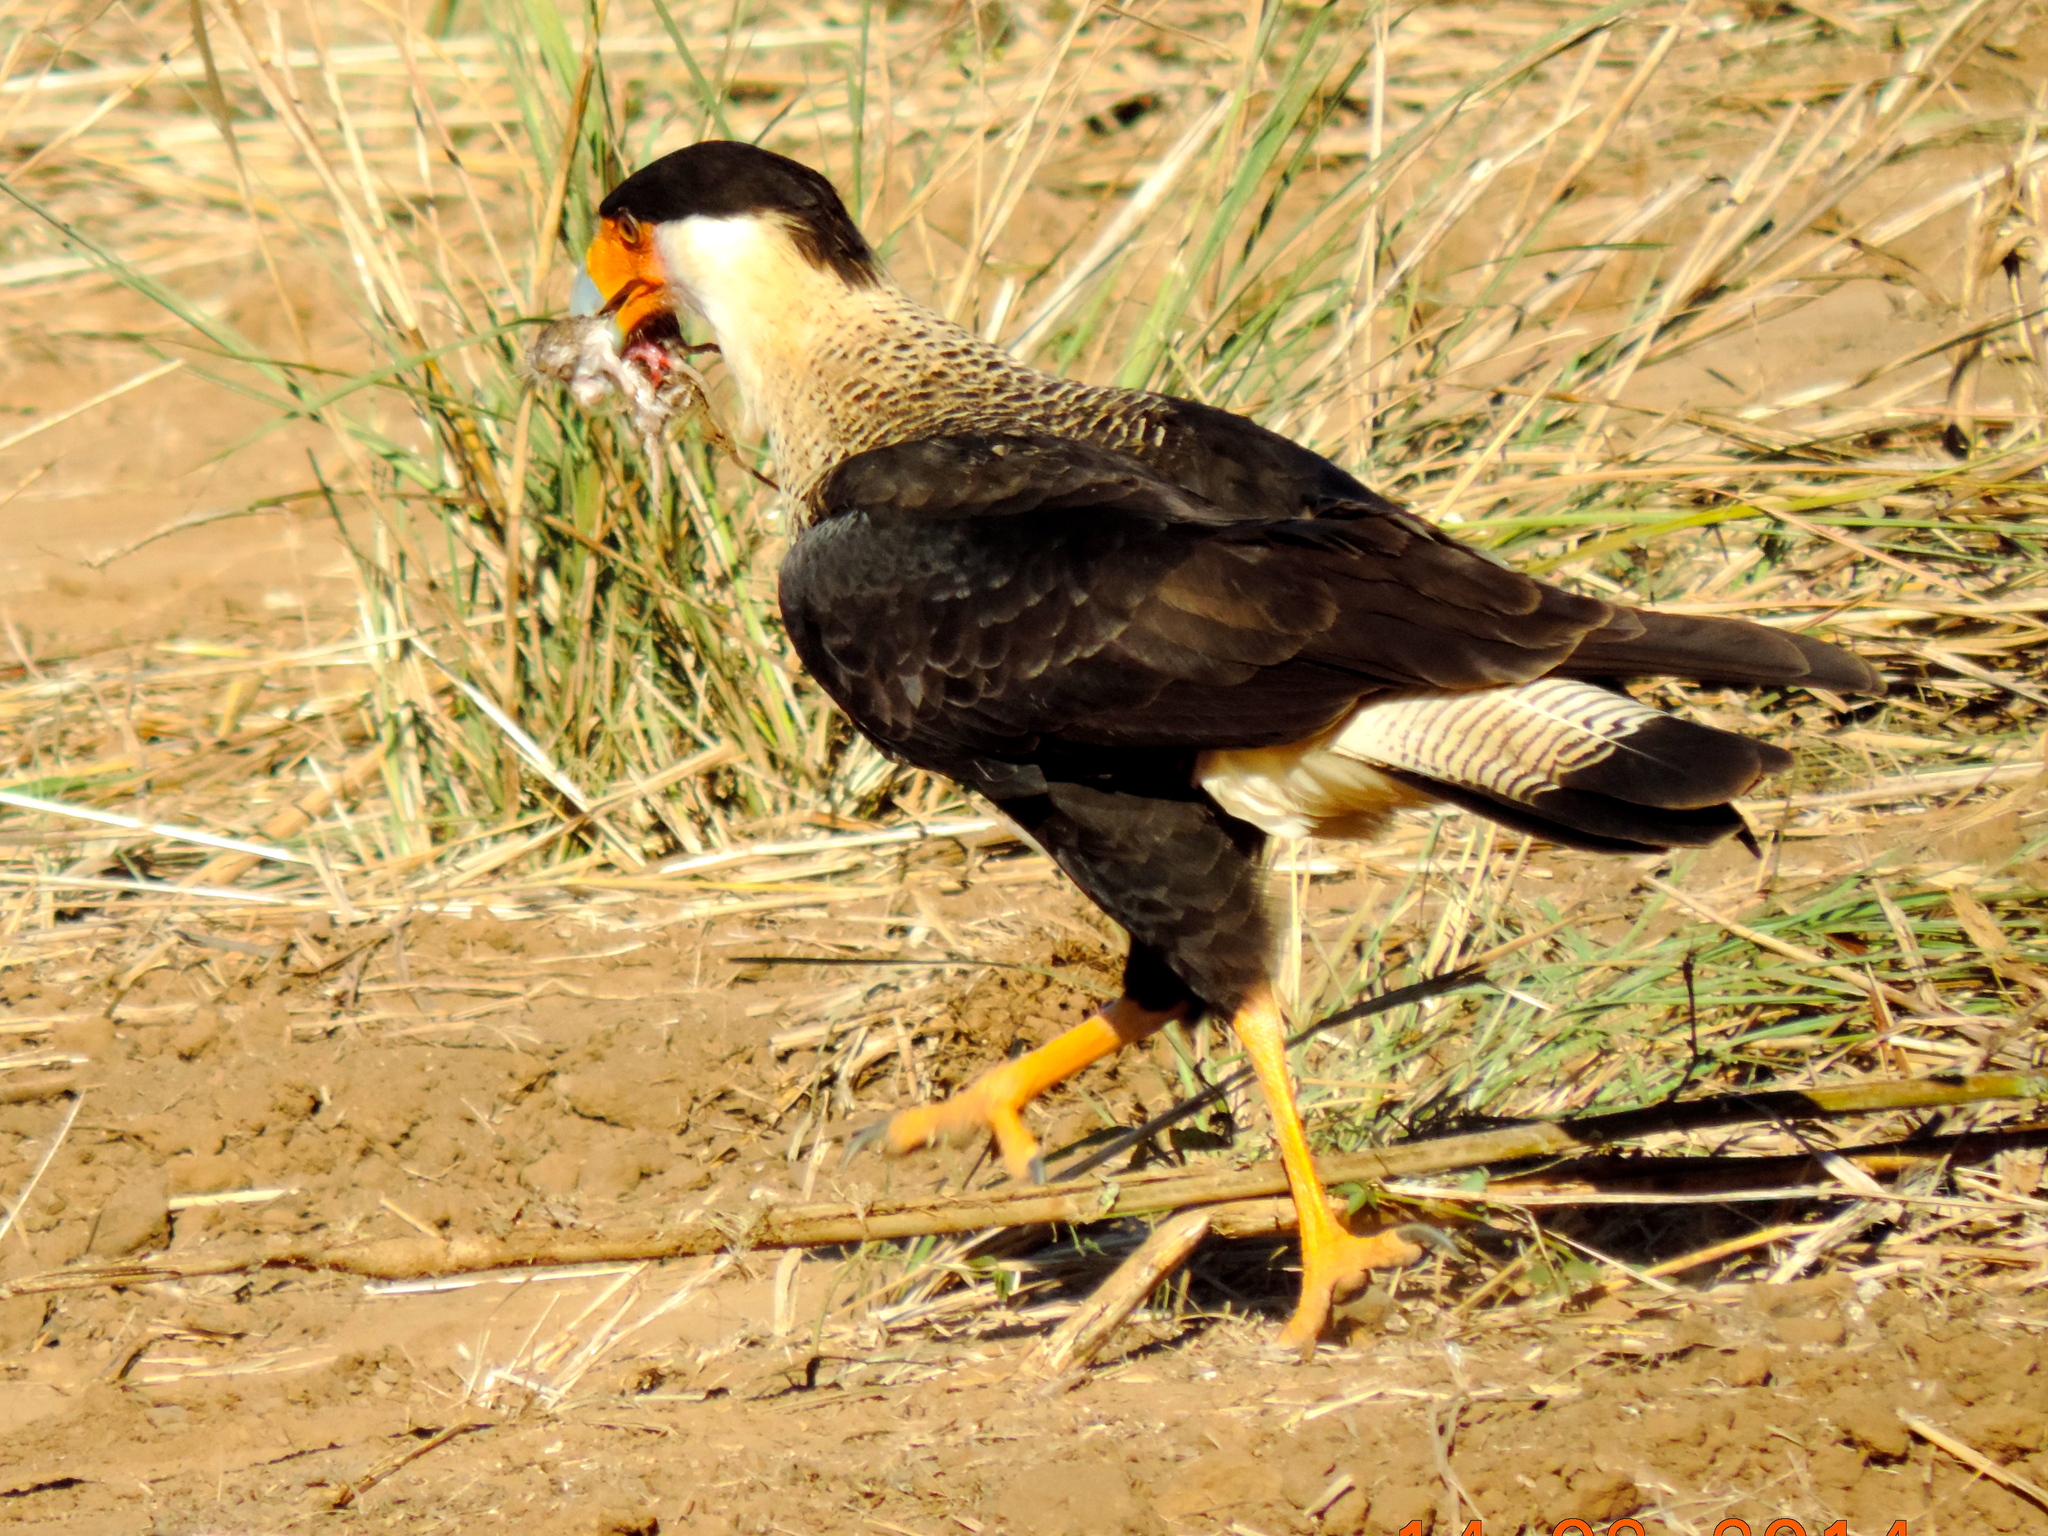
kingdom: Animalia
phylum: Chordata
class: Aves
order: Falconiformes
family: Falconidae
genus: Caracara
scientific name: Caracara plancus
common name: Southern caracara
